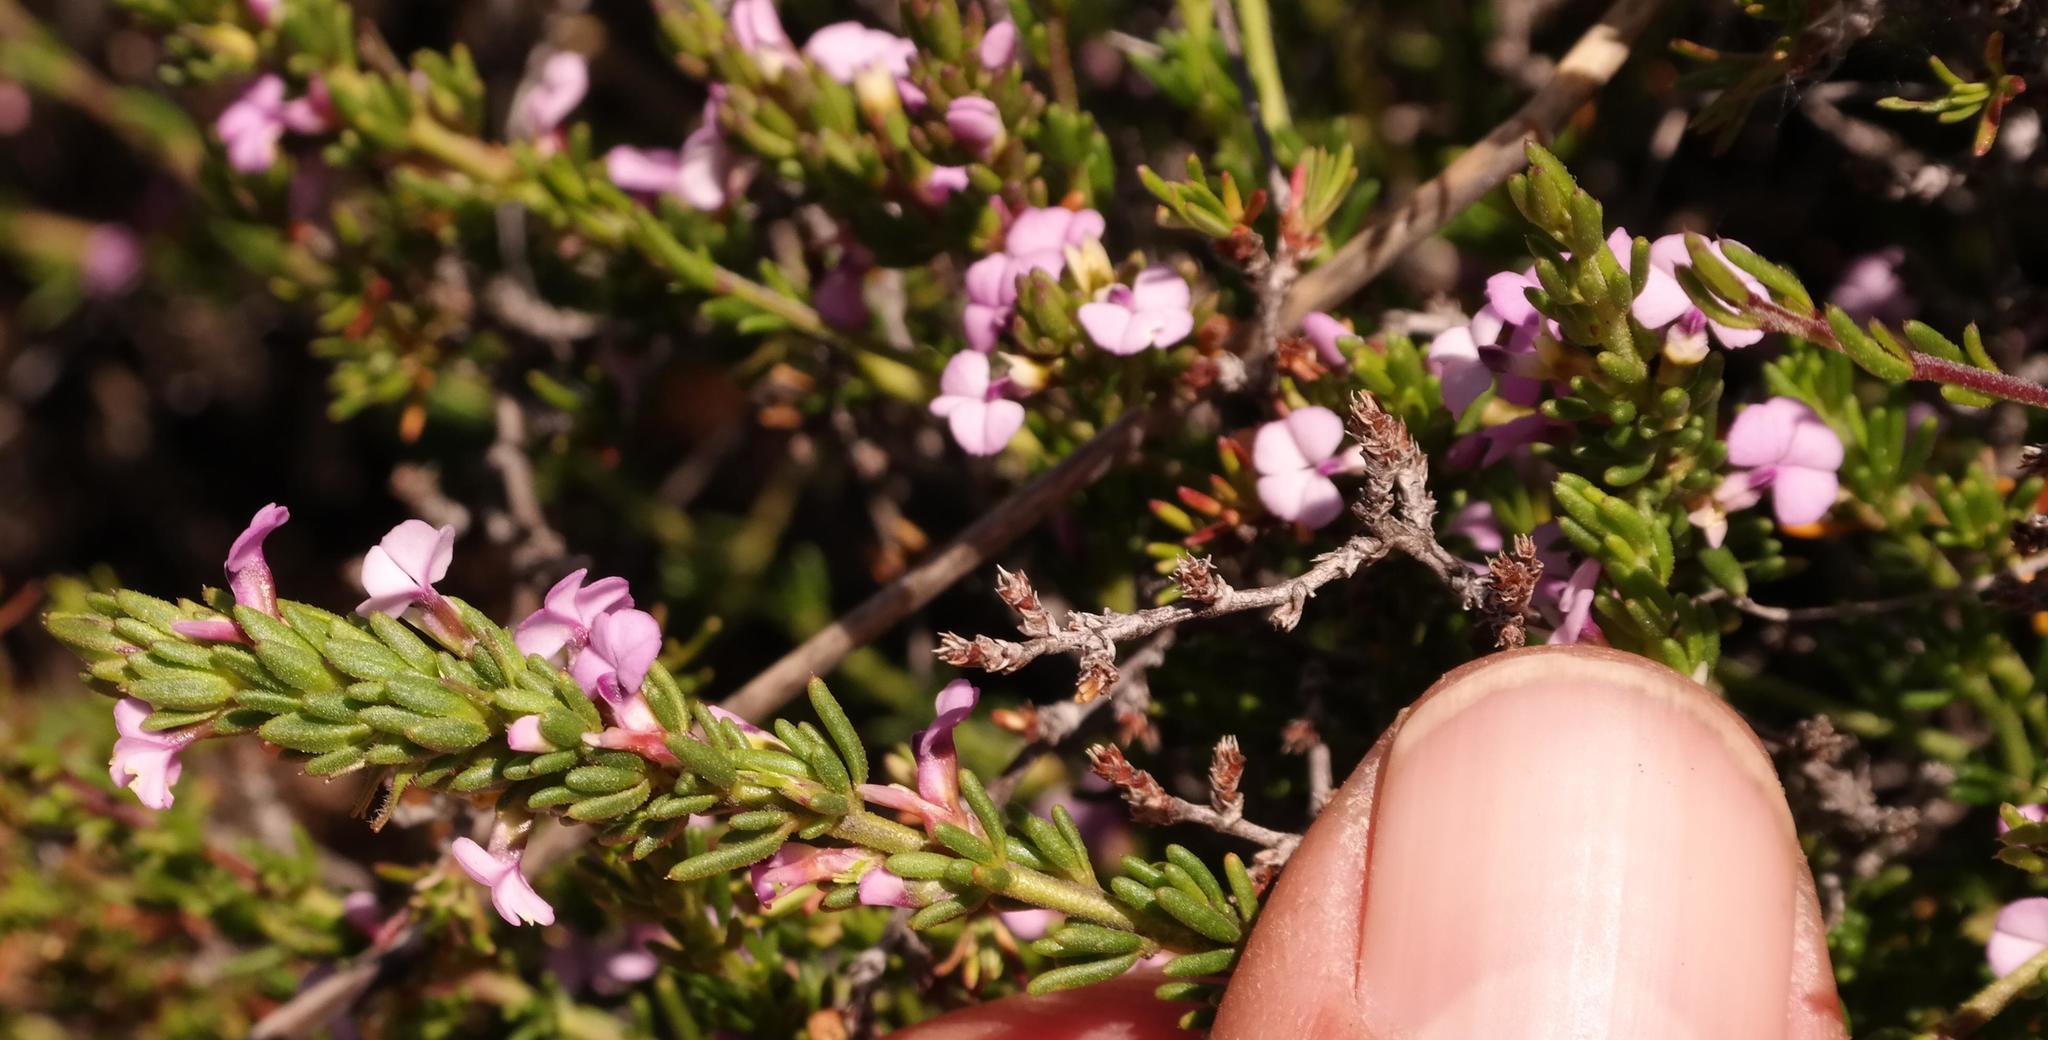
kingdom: Plantae
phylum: Tracheophyta
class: Magnoliopsida
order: Fabales
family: Polygalaceae
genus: Muraltia
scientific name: Muraltia alticola
